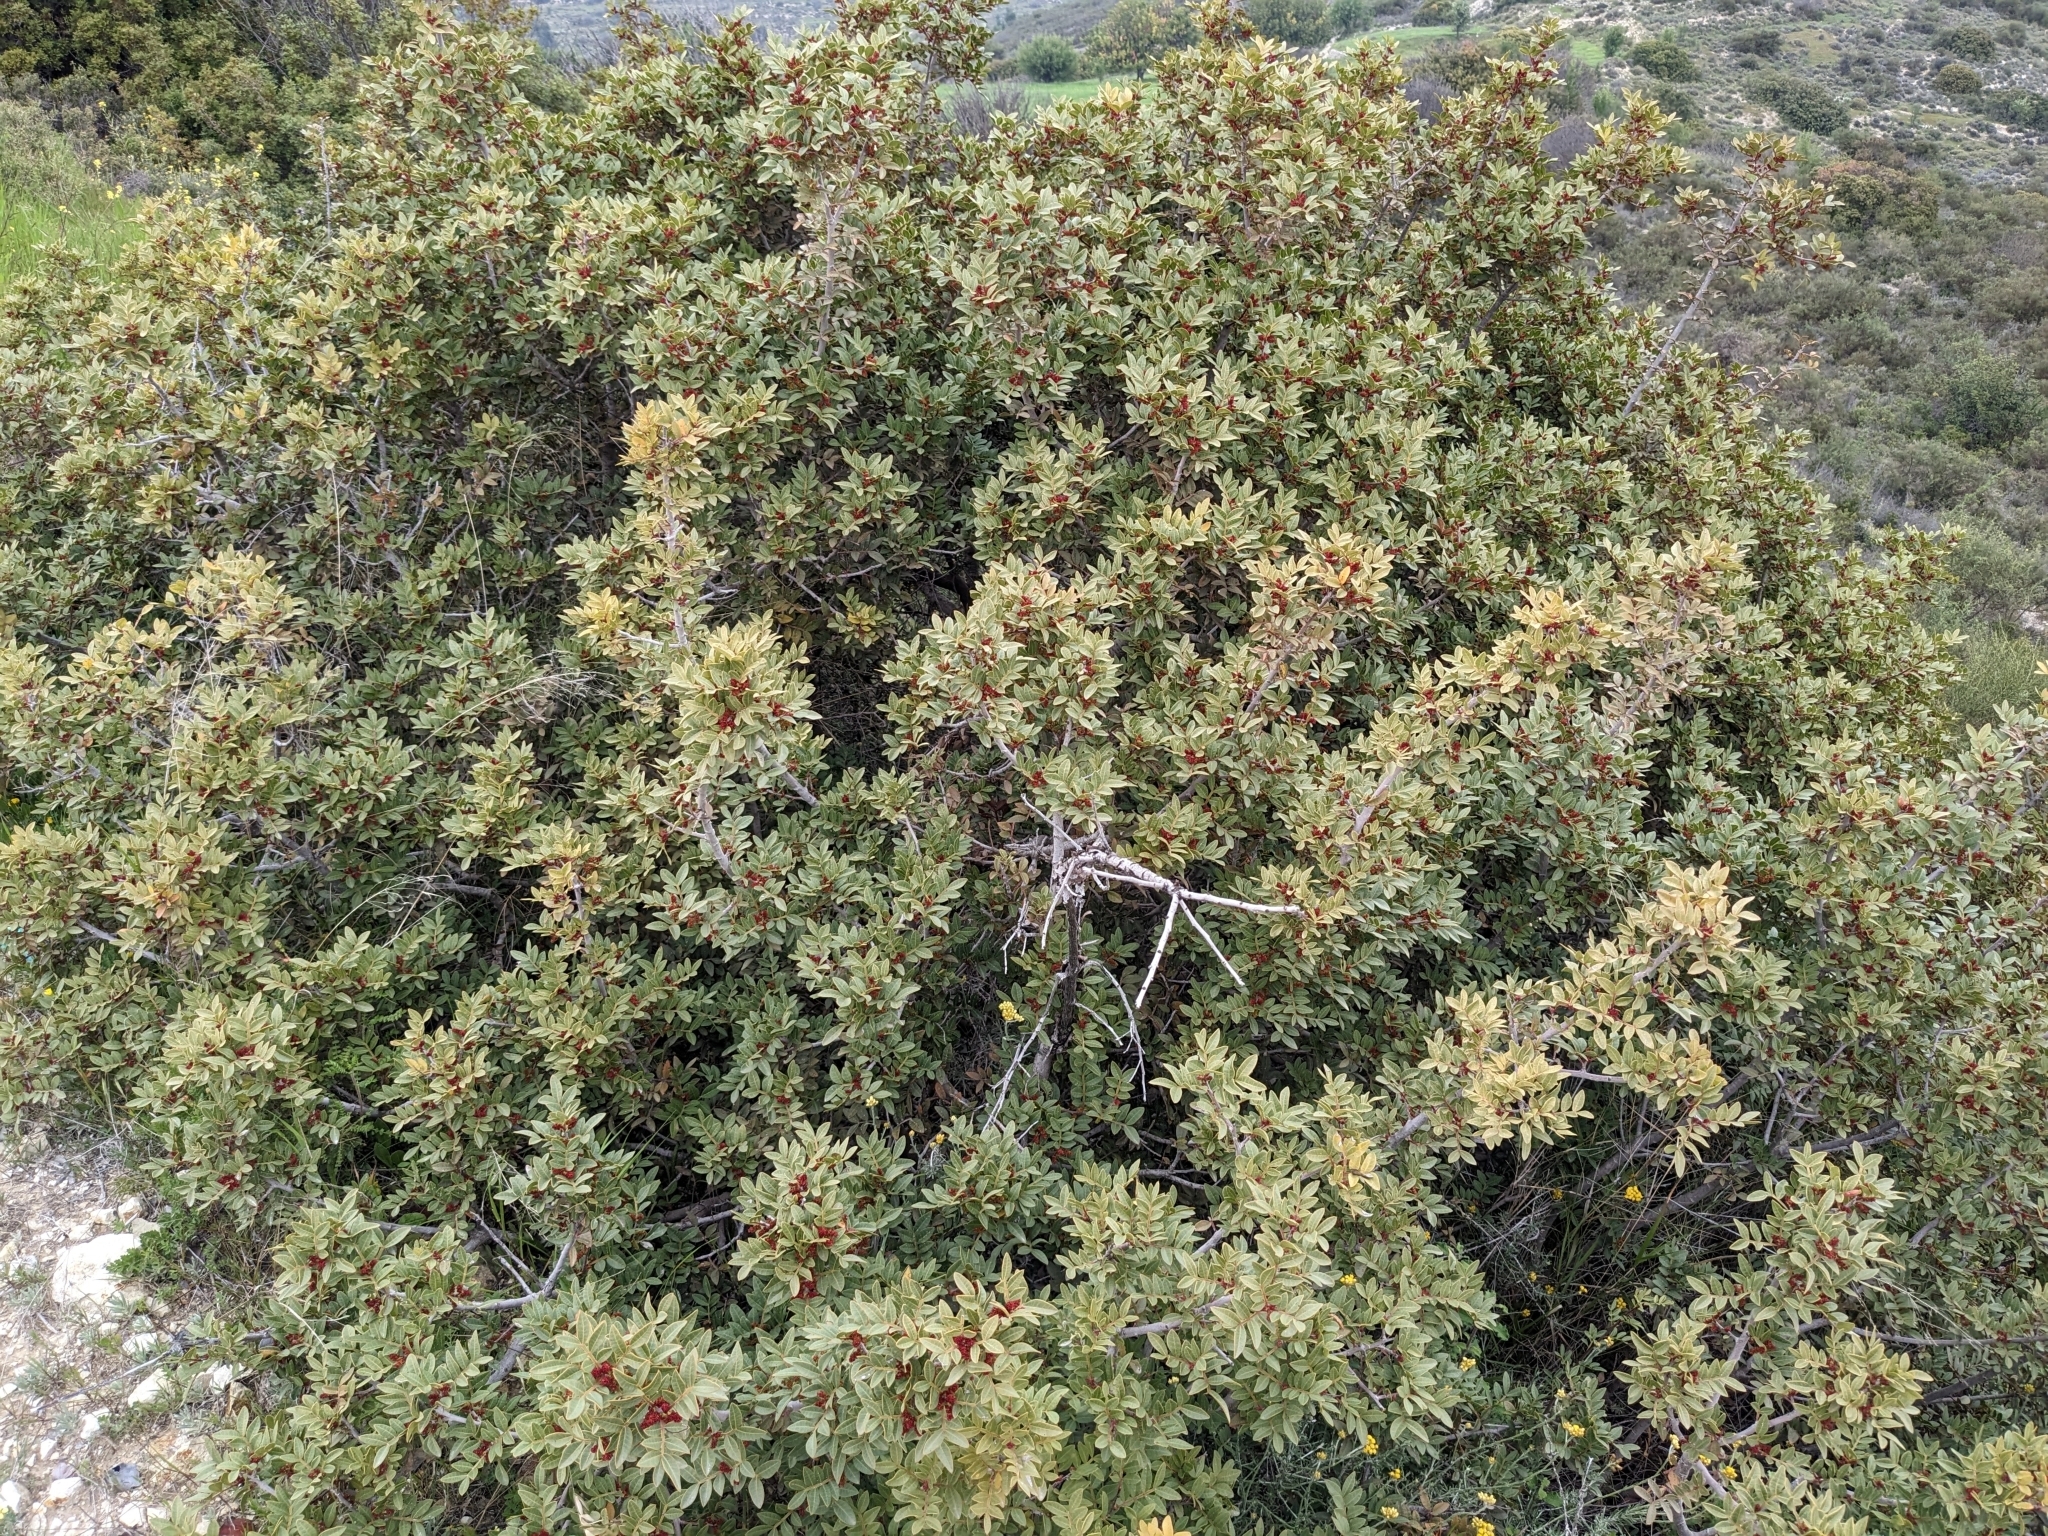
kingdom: Plantae
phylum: Tracheophyta
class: Magnoliopsida
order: Sapindales
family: Anacardiaceae
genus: Pistacia
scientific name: Pistacia lentiscus
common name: Lentisk
